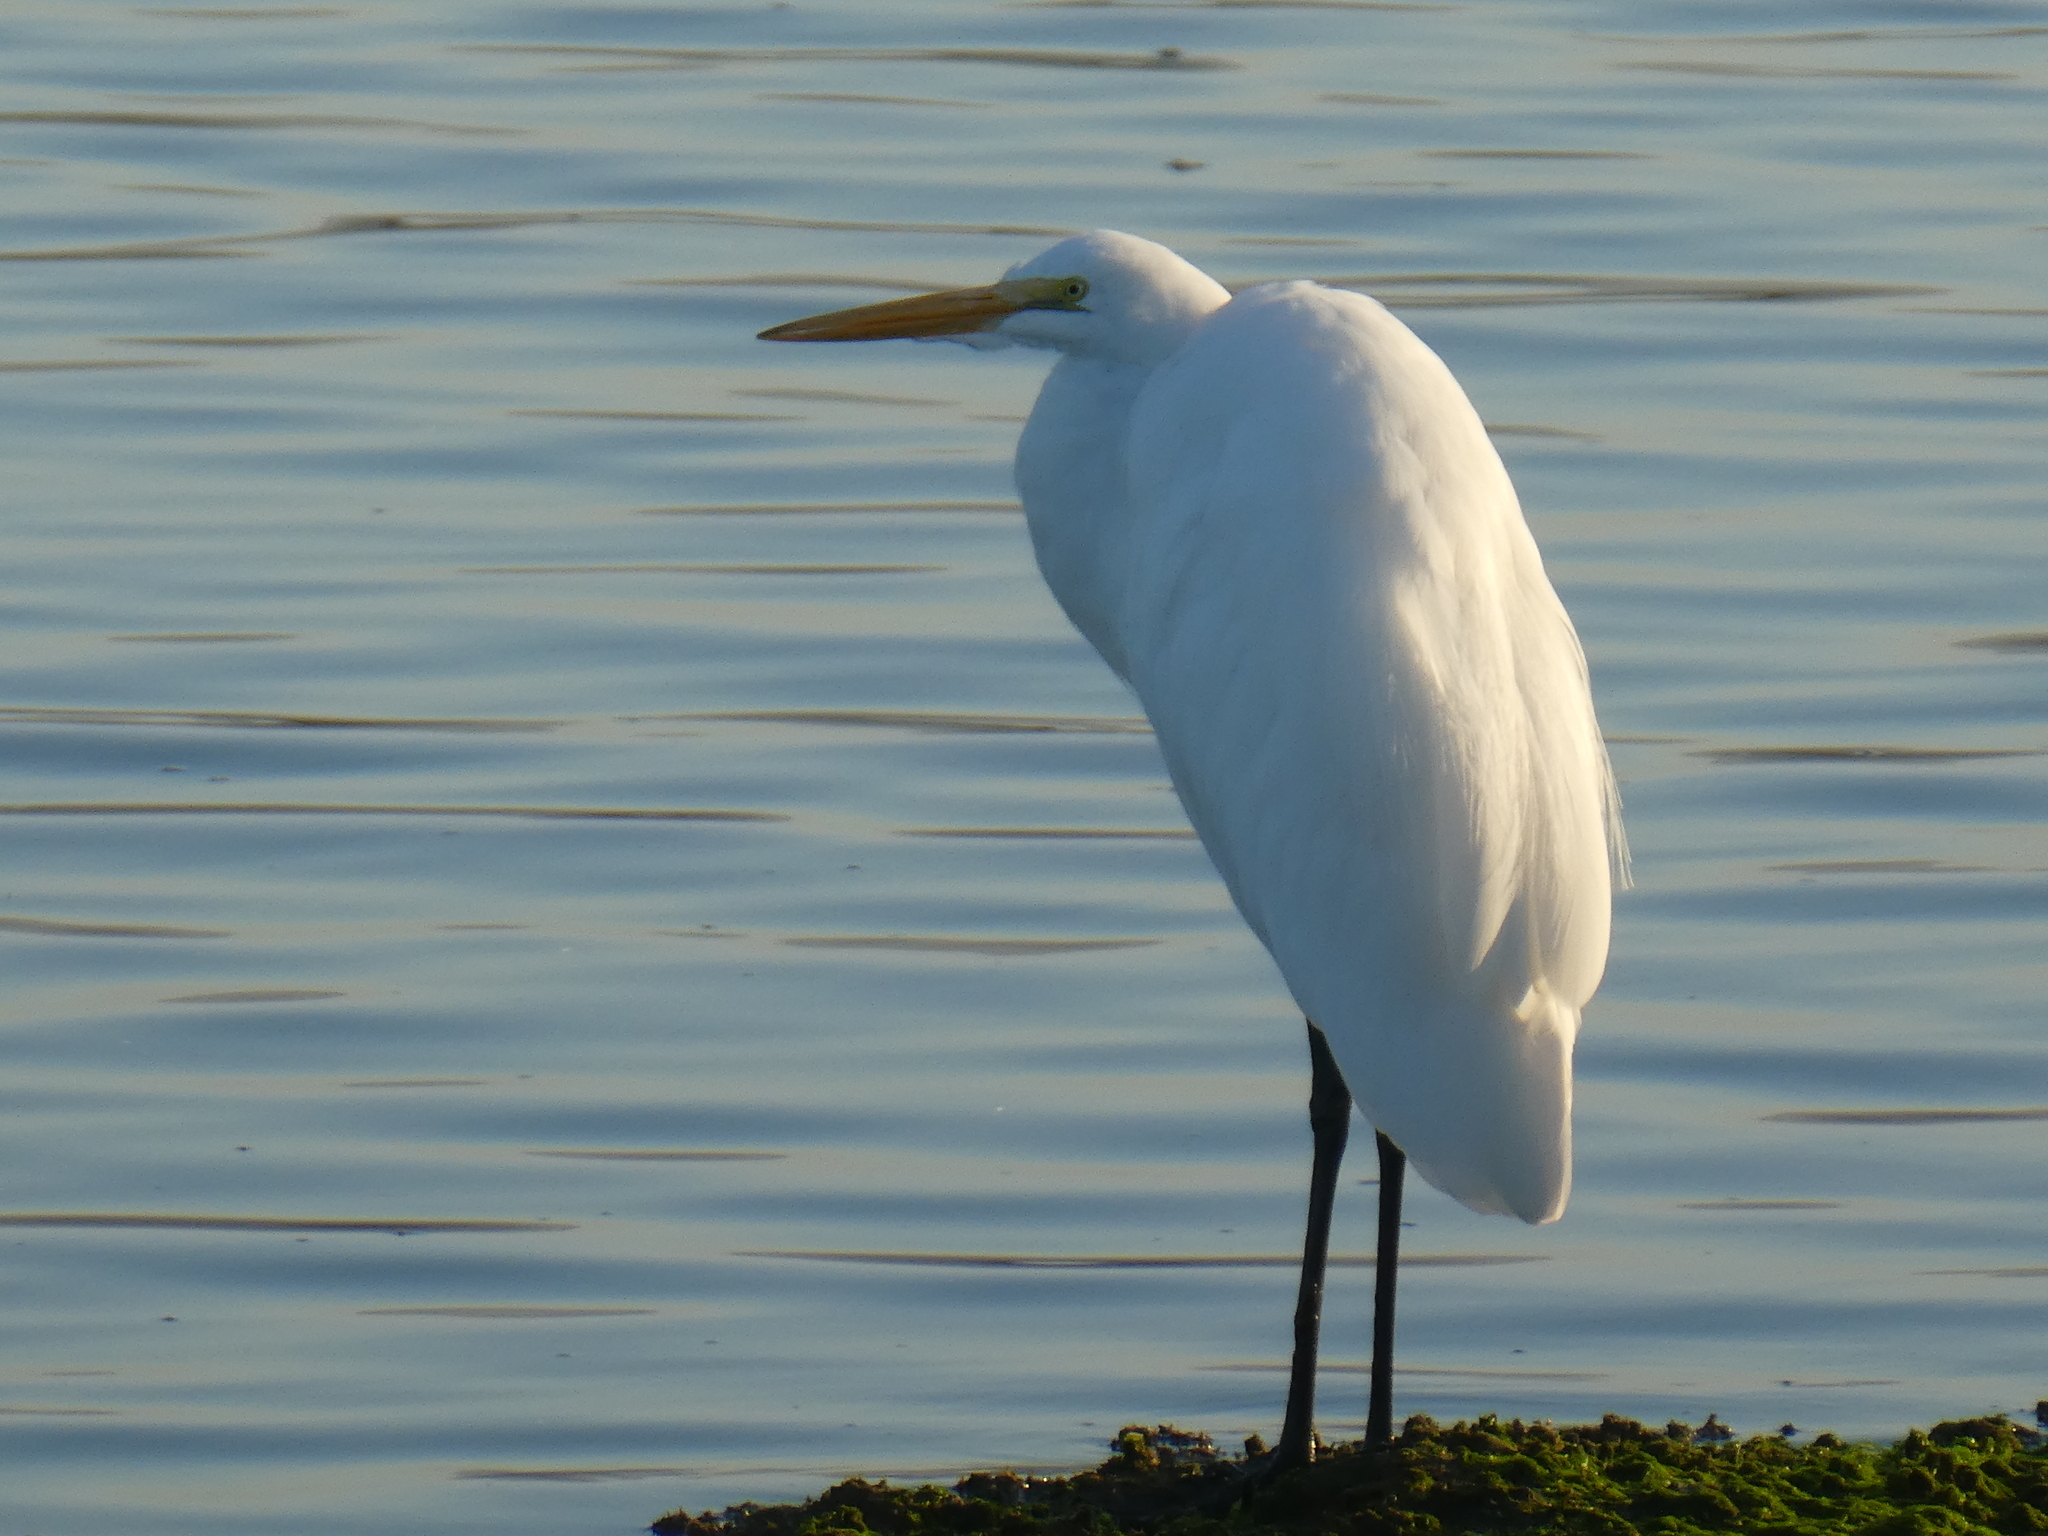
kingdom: Animalia
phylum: Chordata
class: Aves
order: Pelecaniformes
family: Ardeidae
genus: Ardea
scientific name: Ardea alba
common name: Great egret
